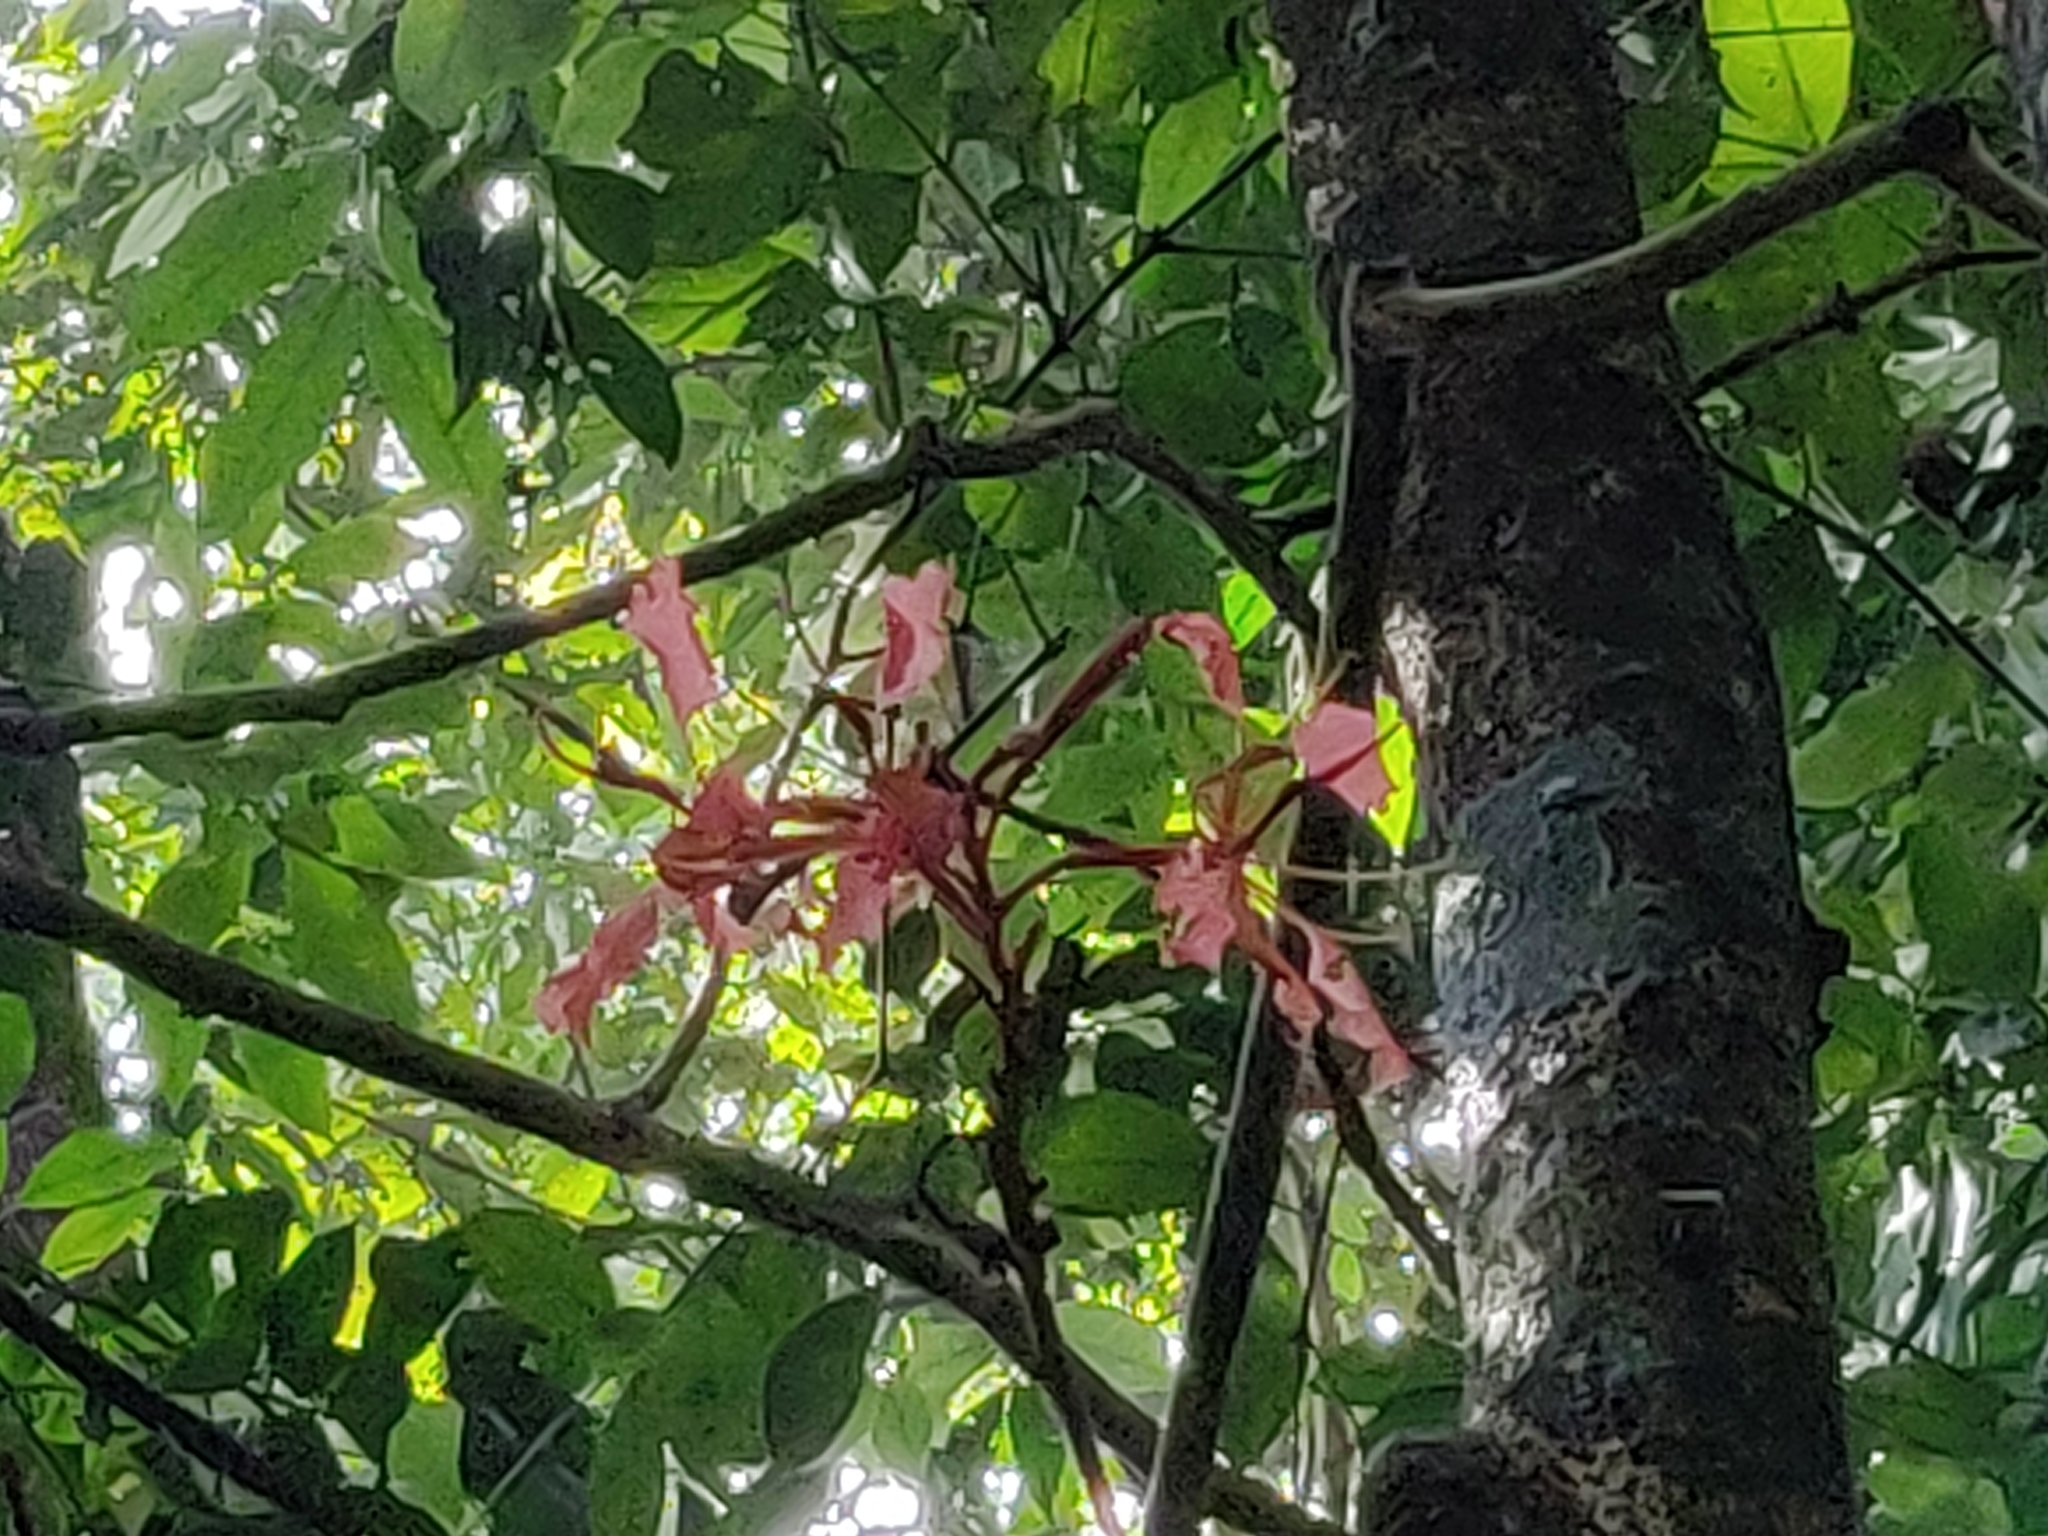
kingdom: Plantae
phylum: Tracheophyta
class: Magnoliopsida
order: Fabales
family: Fabaceae
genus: Bauhinia
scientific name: Bauhinia phoenicea
